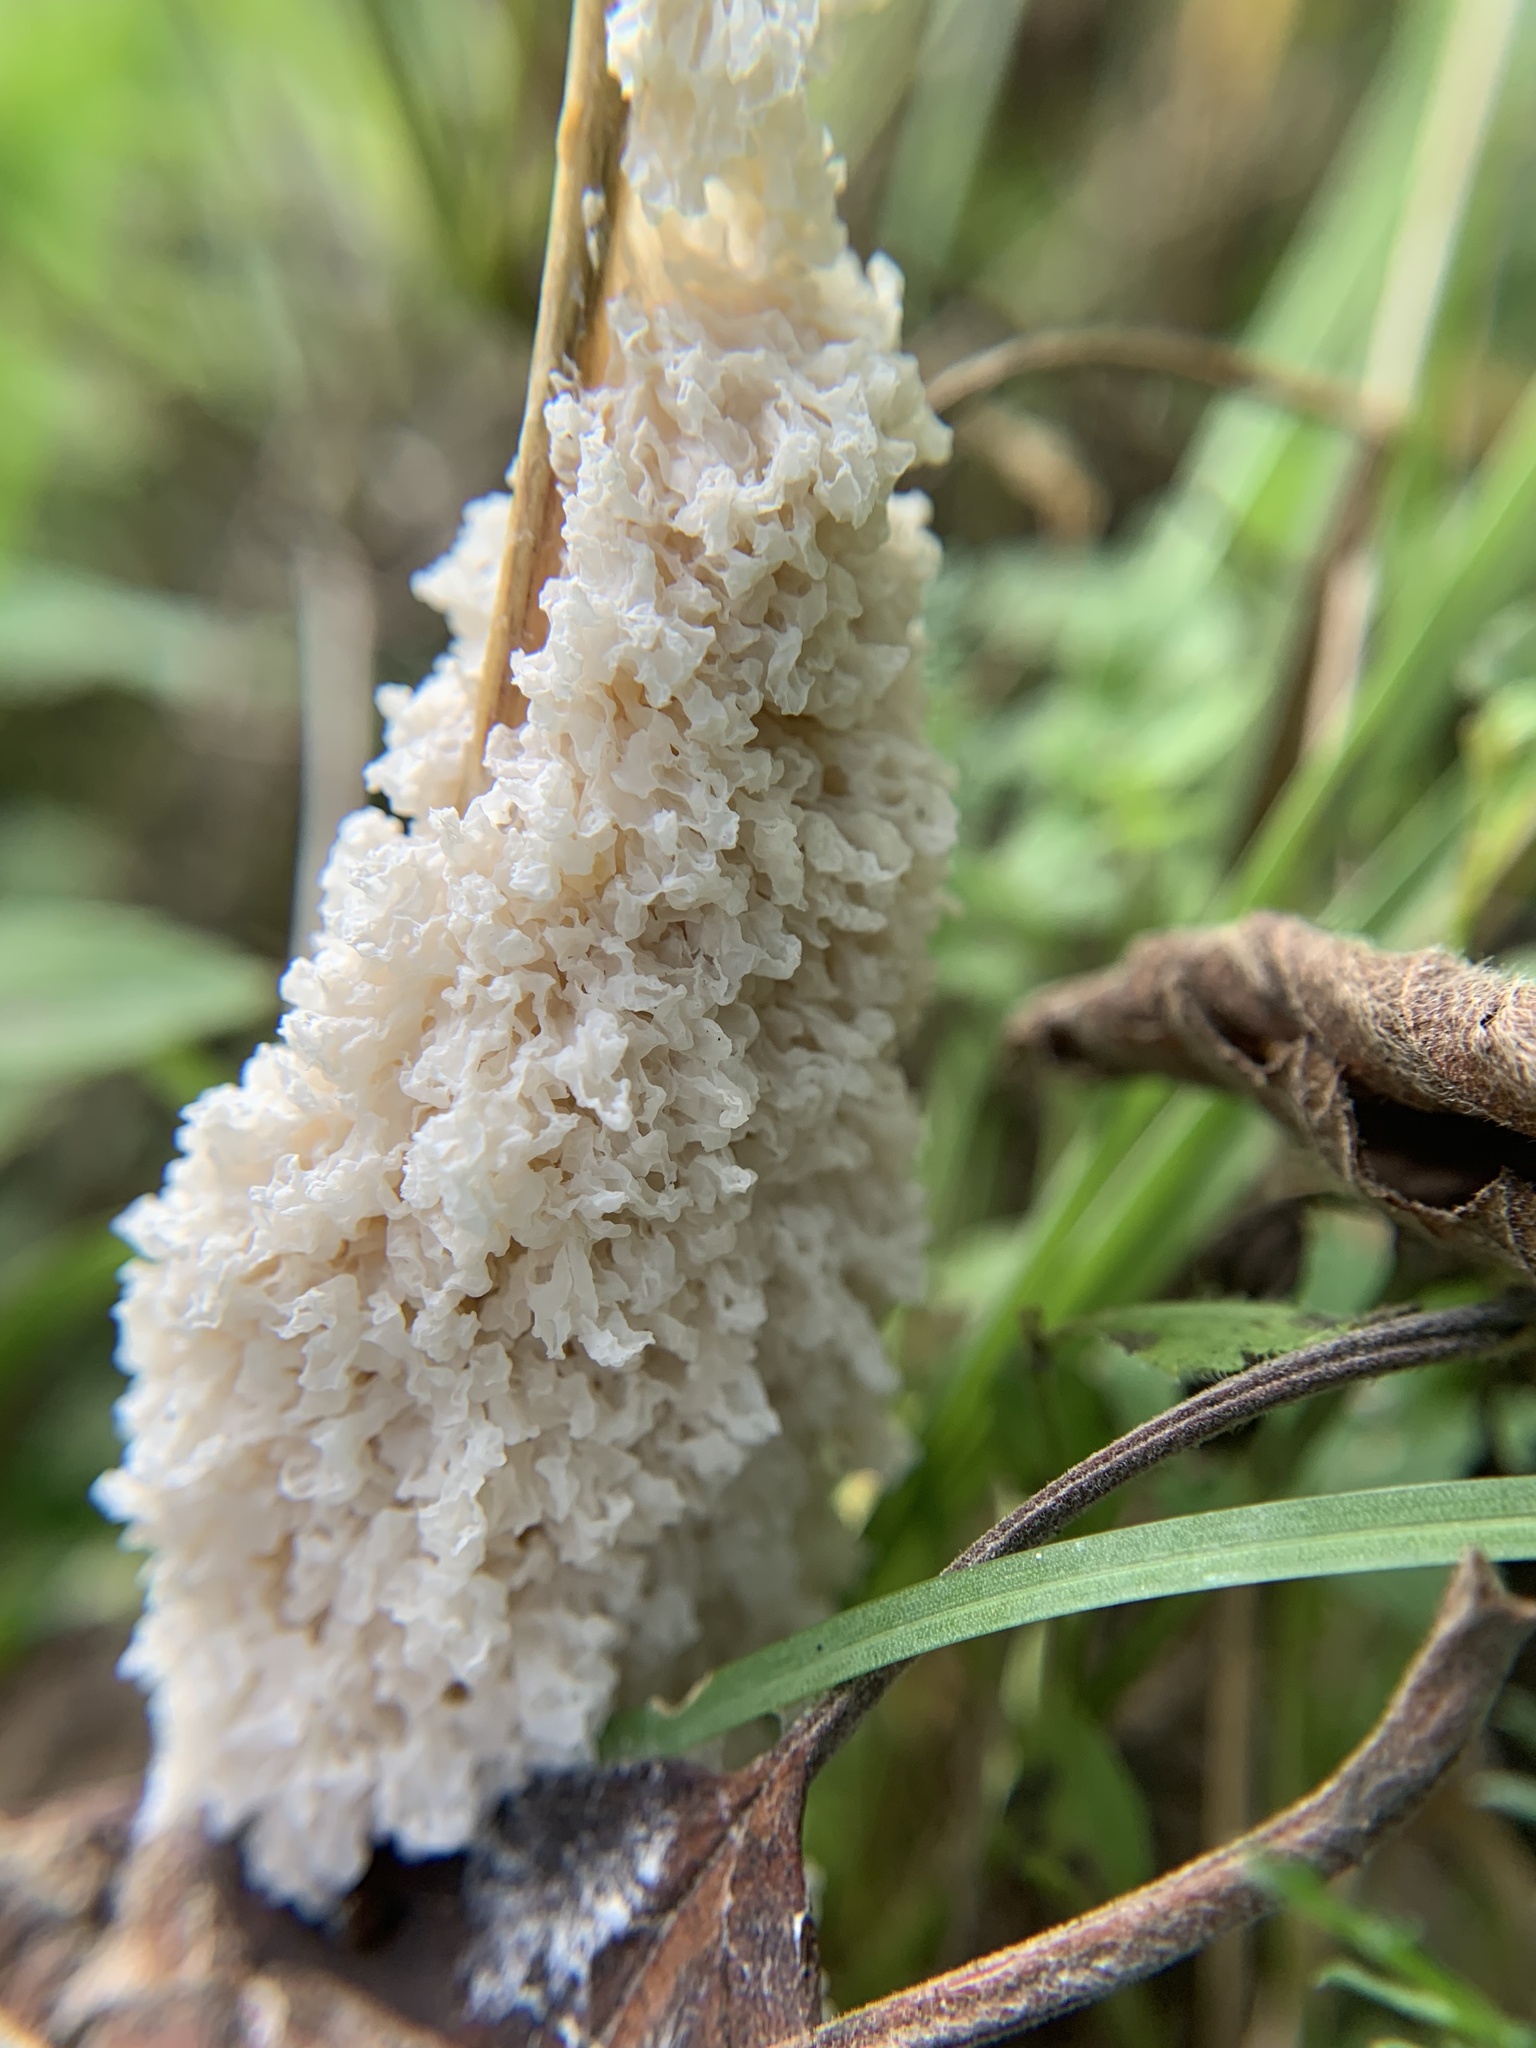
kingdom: Protozoa
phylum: Mycetozoa
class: Myxomycetes
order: Physarales
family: Physaraceae
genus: Didymium
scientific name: Didymium
